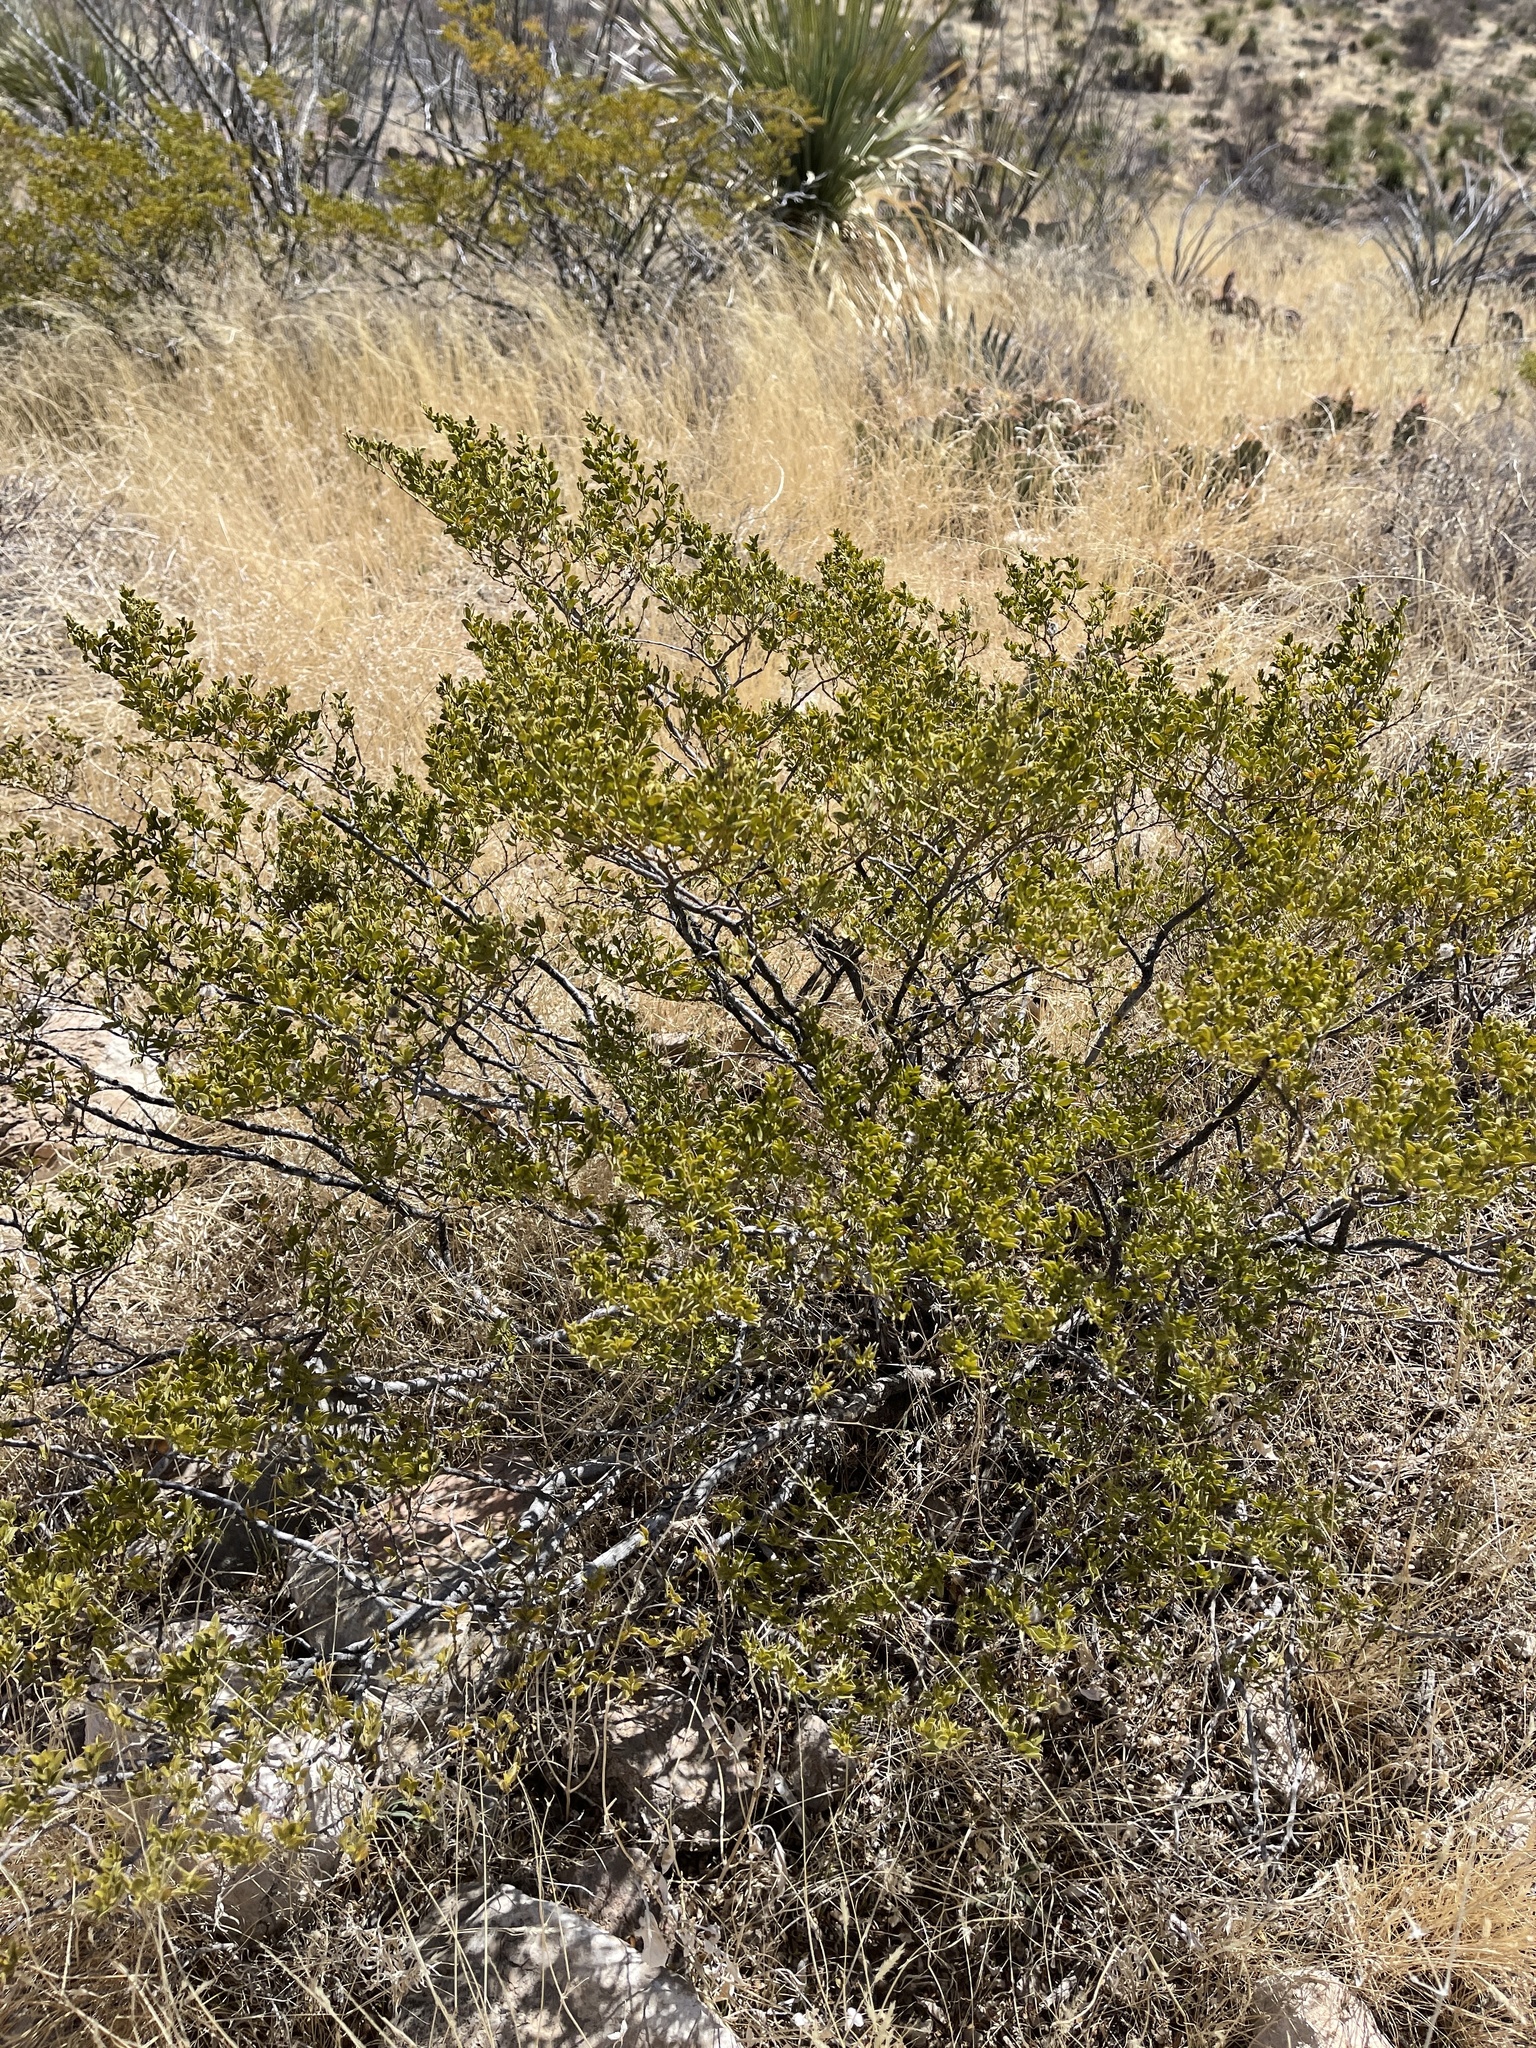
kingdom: Plantae
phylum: Tracheophyta
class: Magnoliopsida
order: Zygophyllales
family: Zygophyllaceae
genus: Larrea
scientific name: Larrea tridentata
